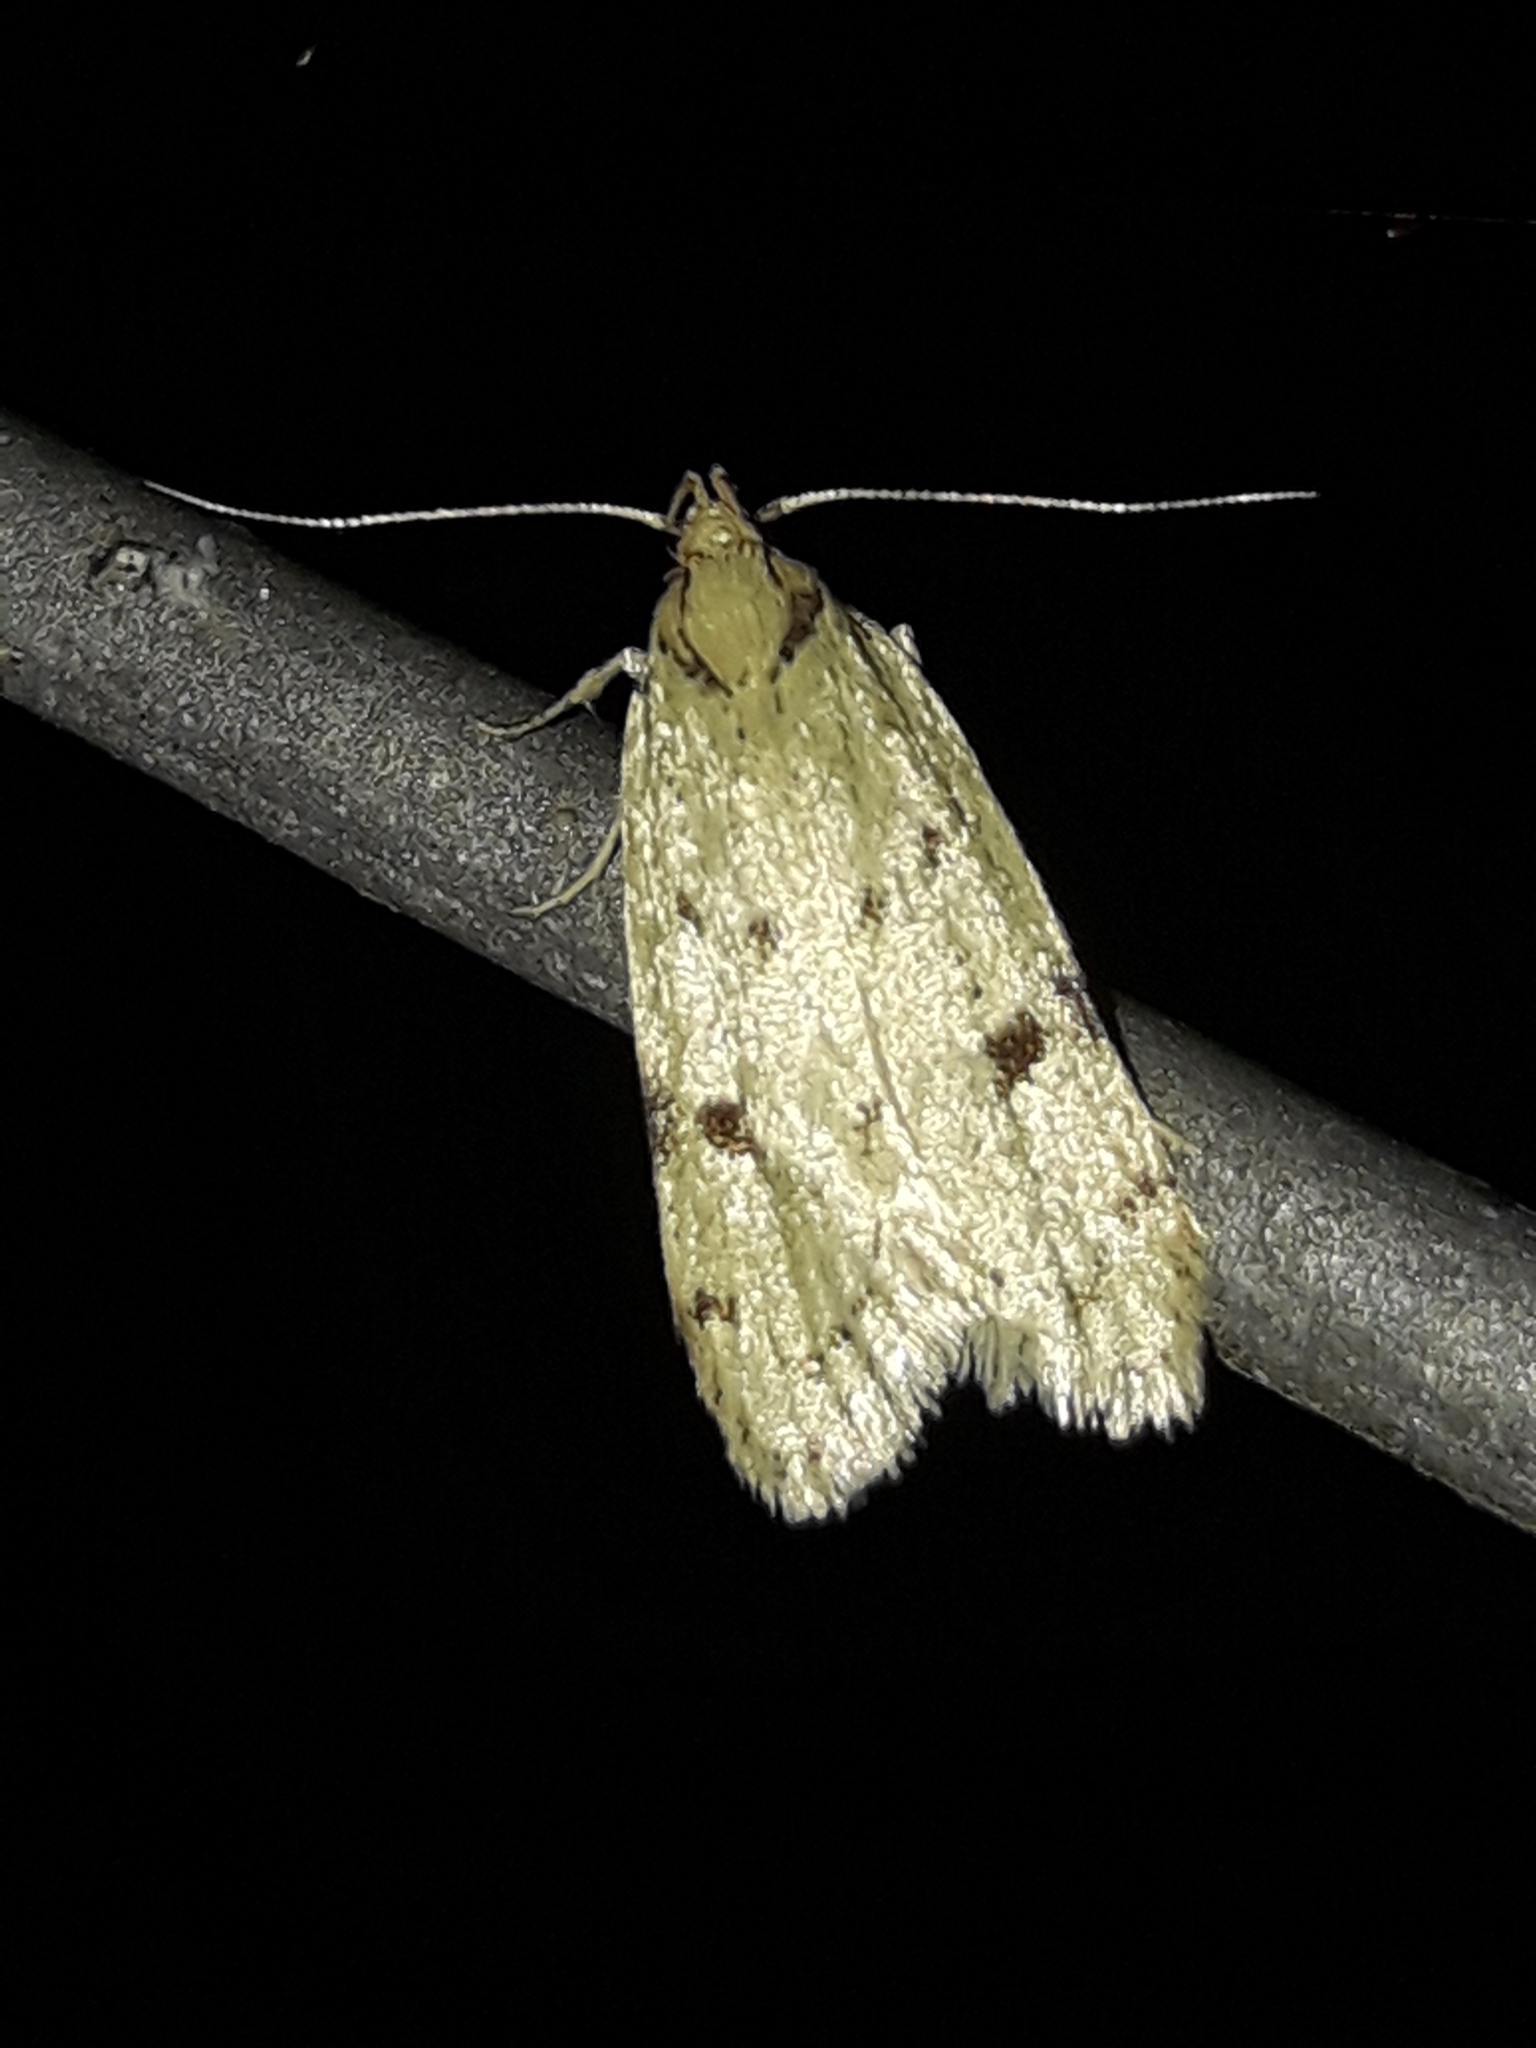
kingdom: Animalia
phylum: Arthropoda
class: Insecta
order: Lepidoptera
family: Oecophoridae
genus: Eulechria
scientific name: Eulechria zophoessa
